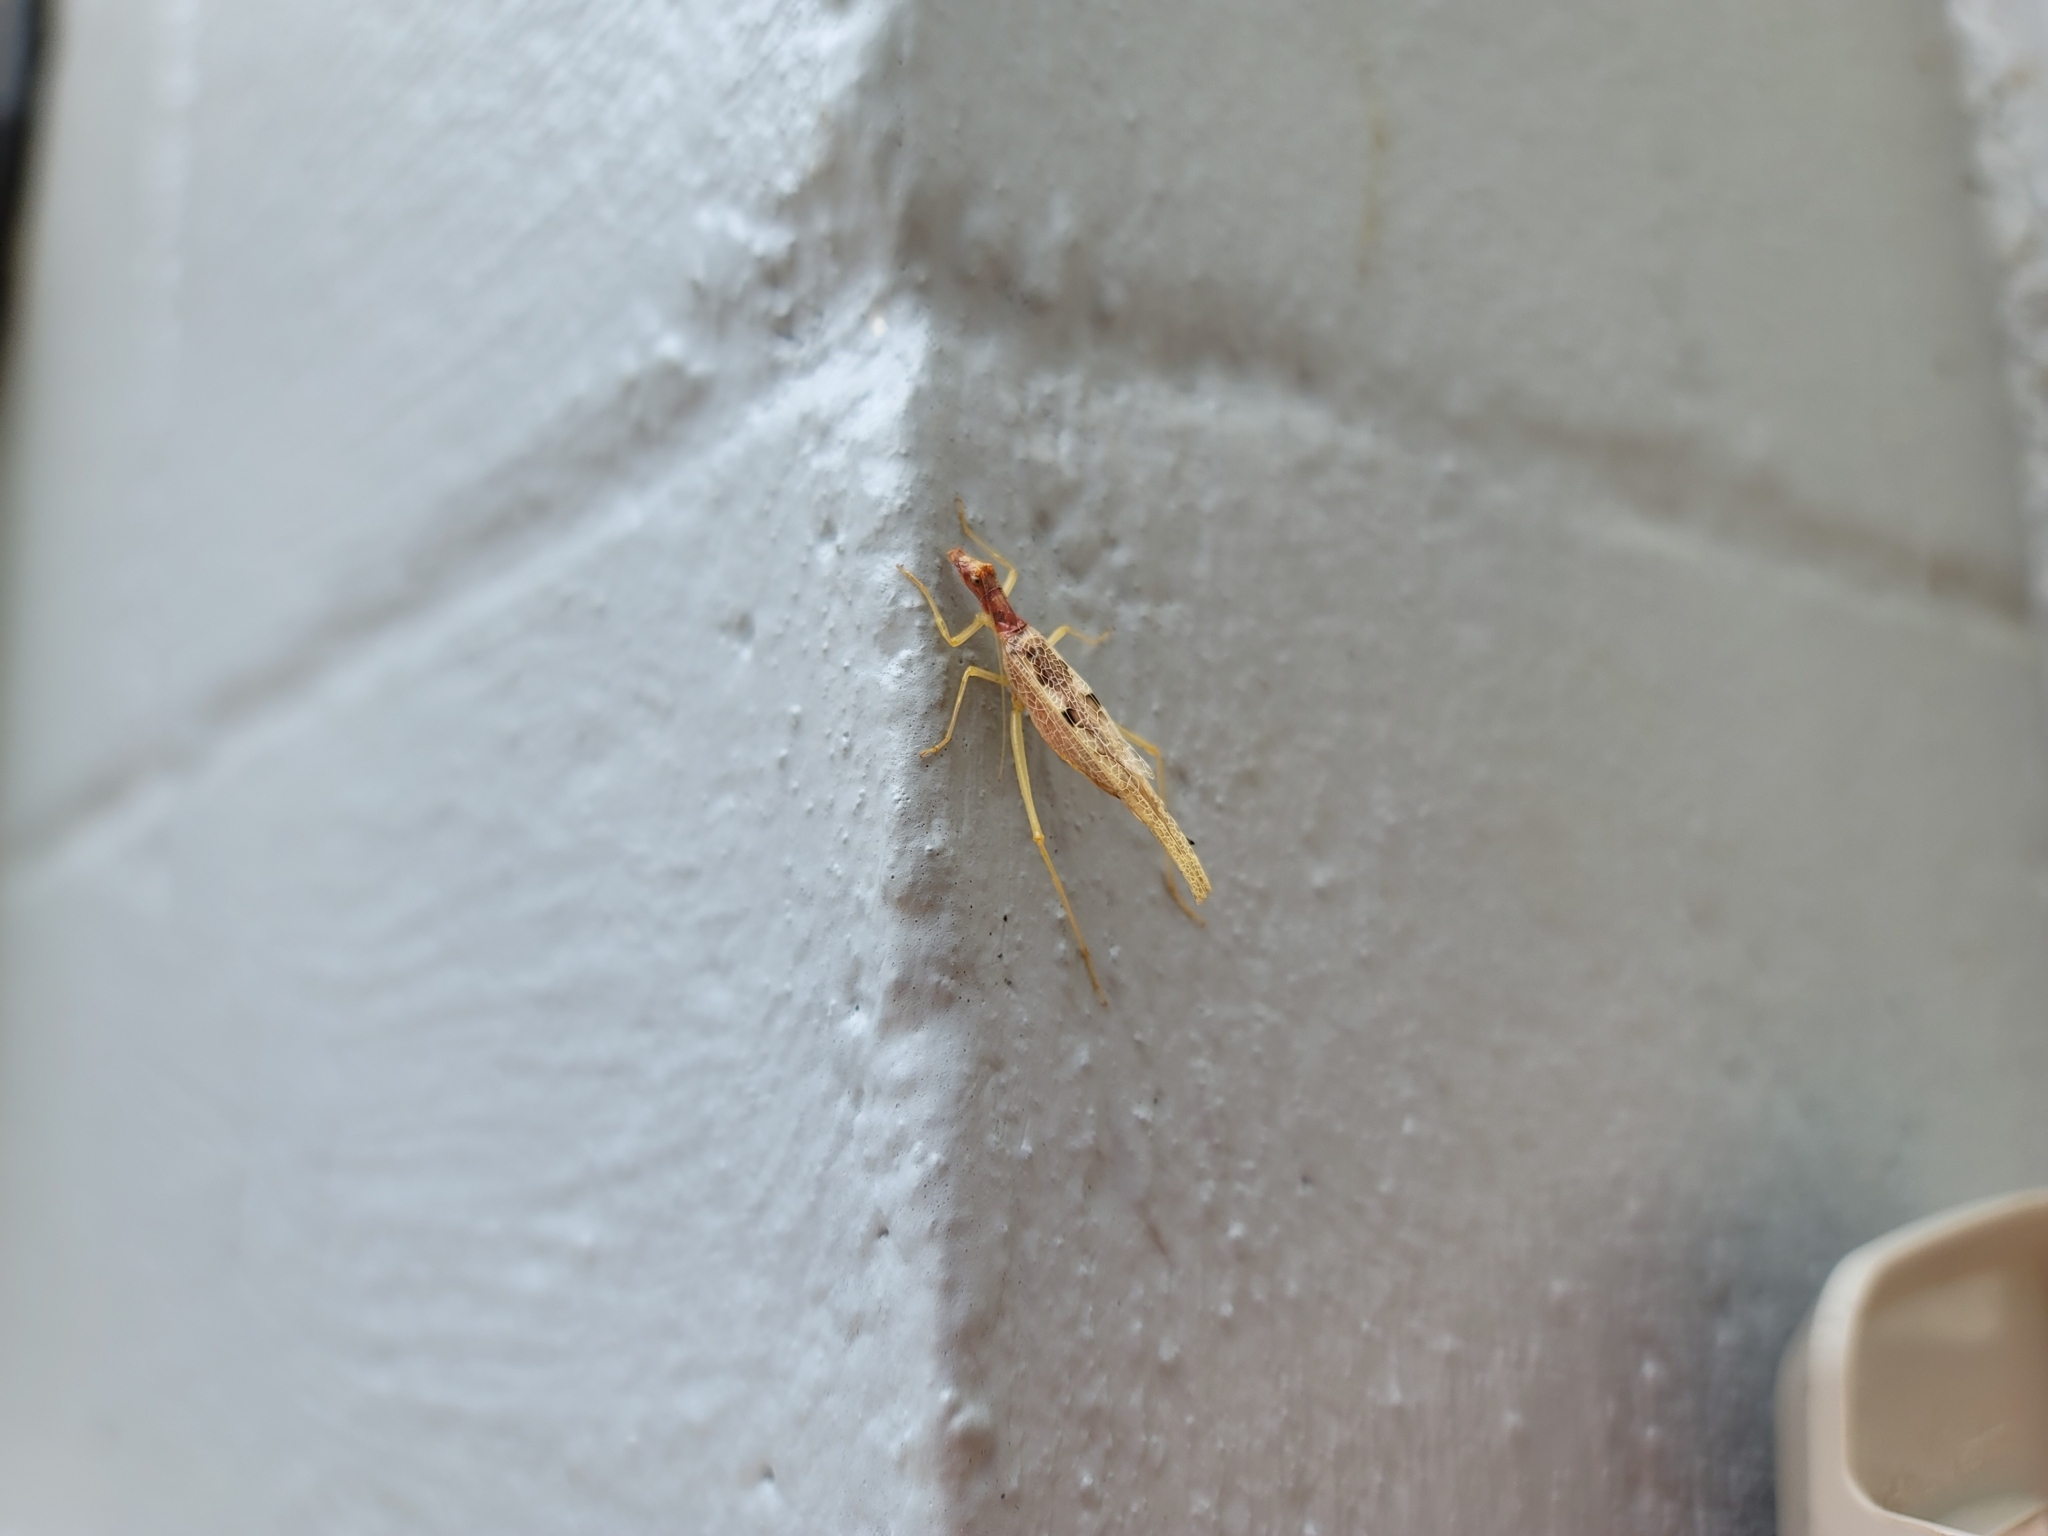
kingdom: Animalia
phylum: Arthropoda
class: Insecta
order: Orthoptera
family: Gryllidae
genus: Neoxabea
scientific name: Neoxabea bipunctata
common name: Two-spotted tree cricket
